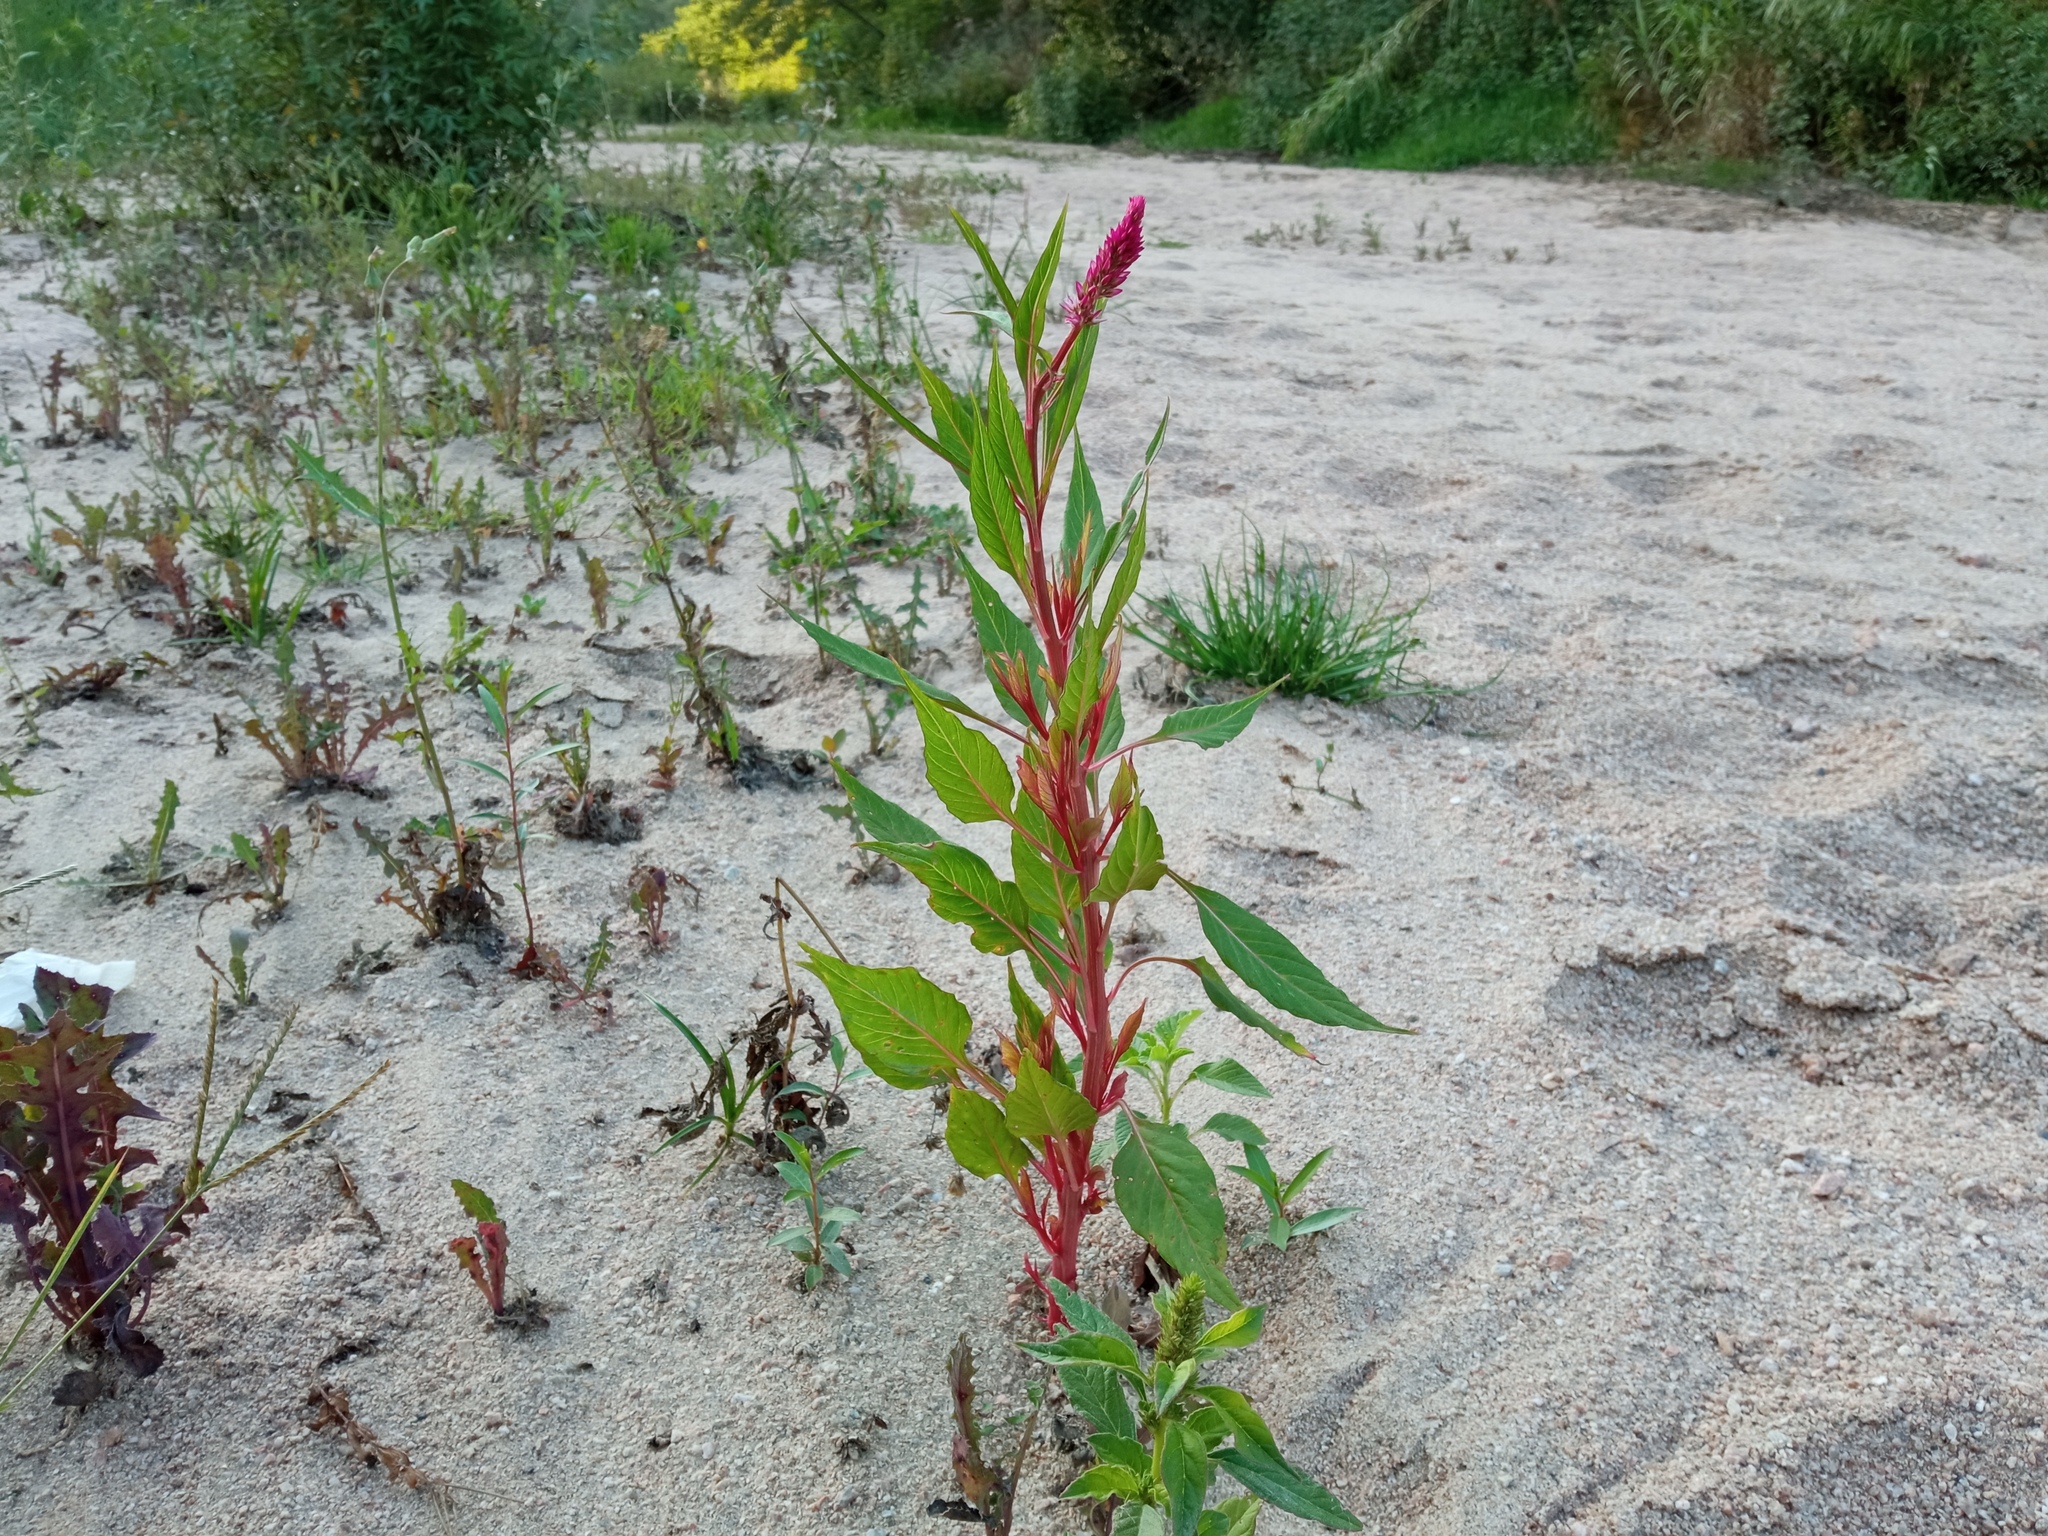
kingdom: Plantae
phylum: Tracheophyta
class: Magnoliopsida
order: Caryophyllales
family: Amaranthaceae
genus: Celosia
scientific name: Celosia argentea
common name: Feather cockscomb
